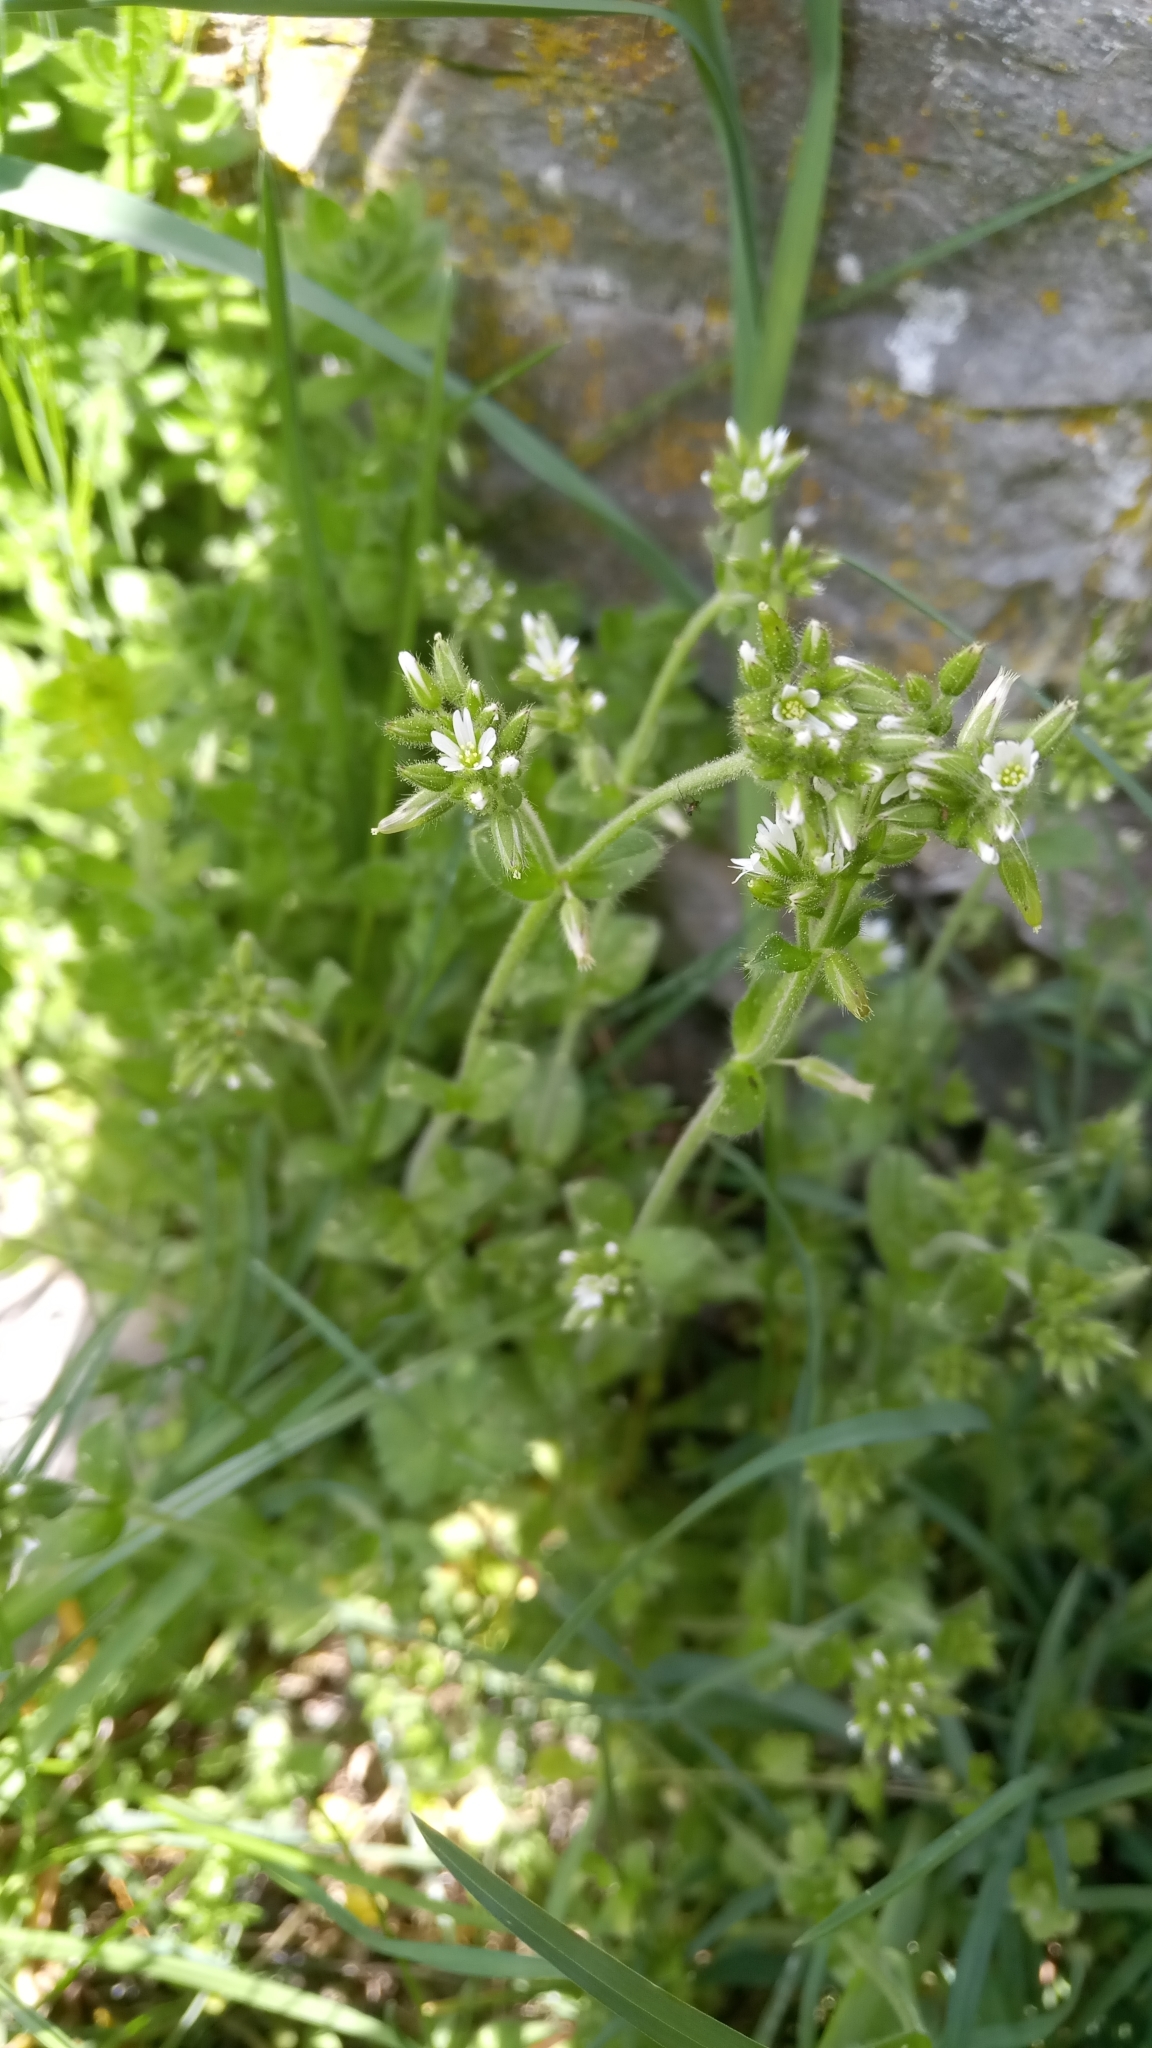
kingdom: Plantae
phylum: Tracheophyta
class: Magnoliopsida
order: Caryophyllales
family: Caryophyllaceae
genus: Cerastium
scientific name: Cerastium glomeratum
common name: Sticky chickweed
